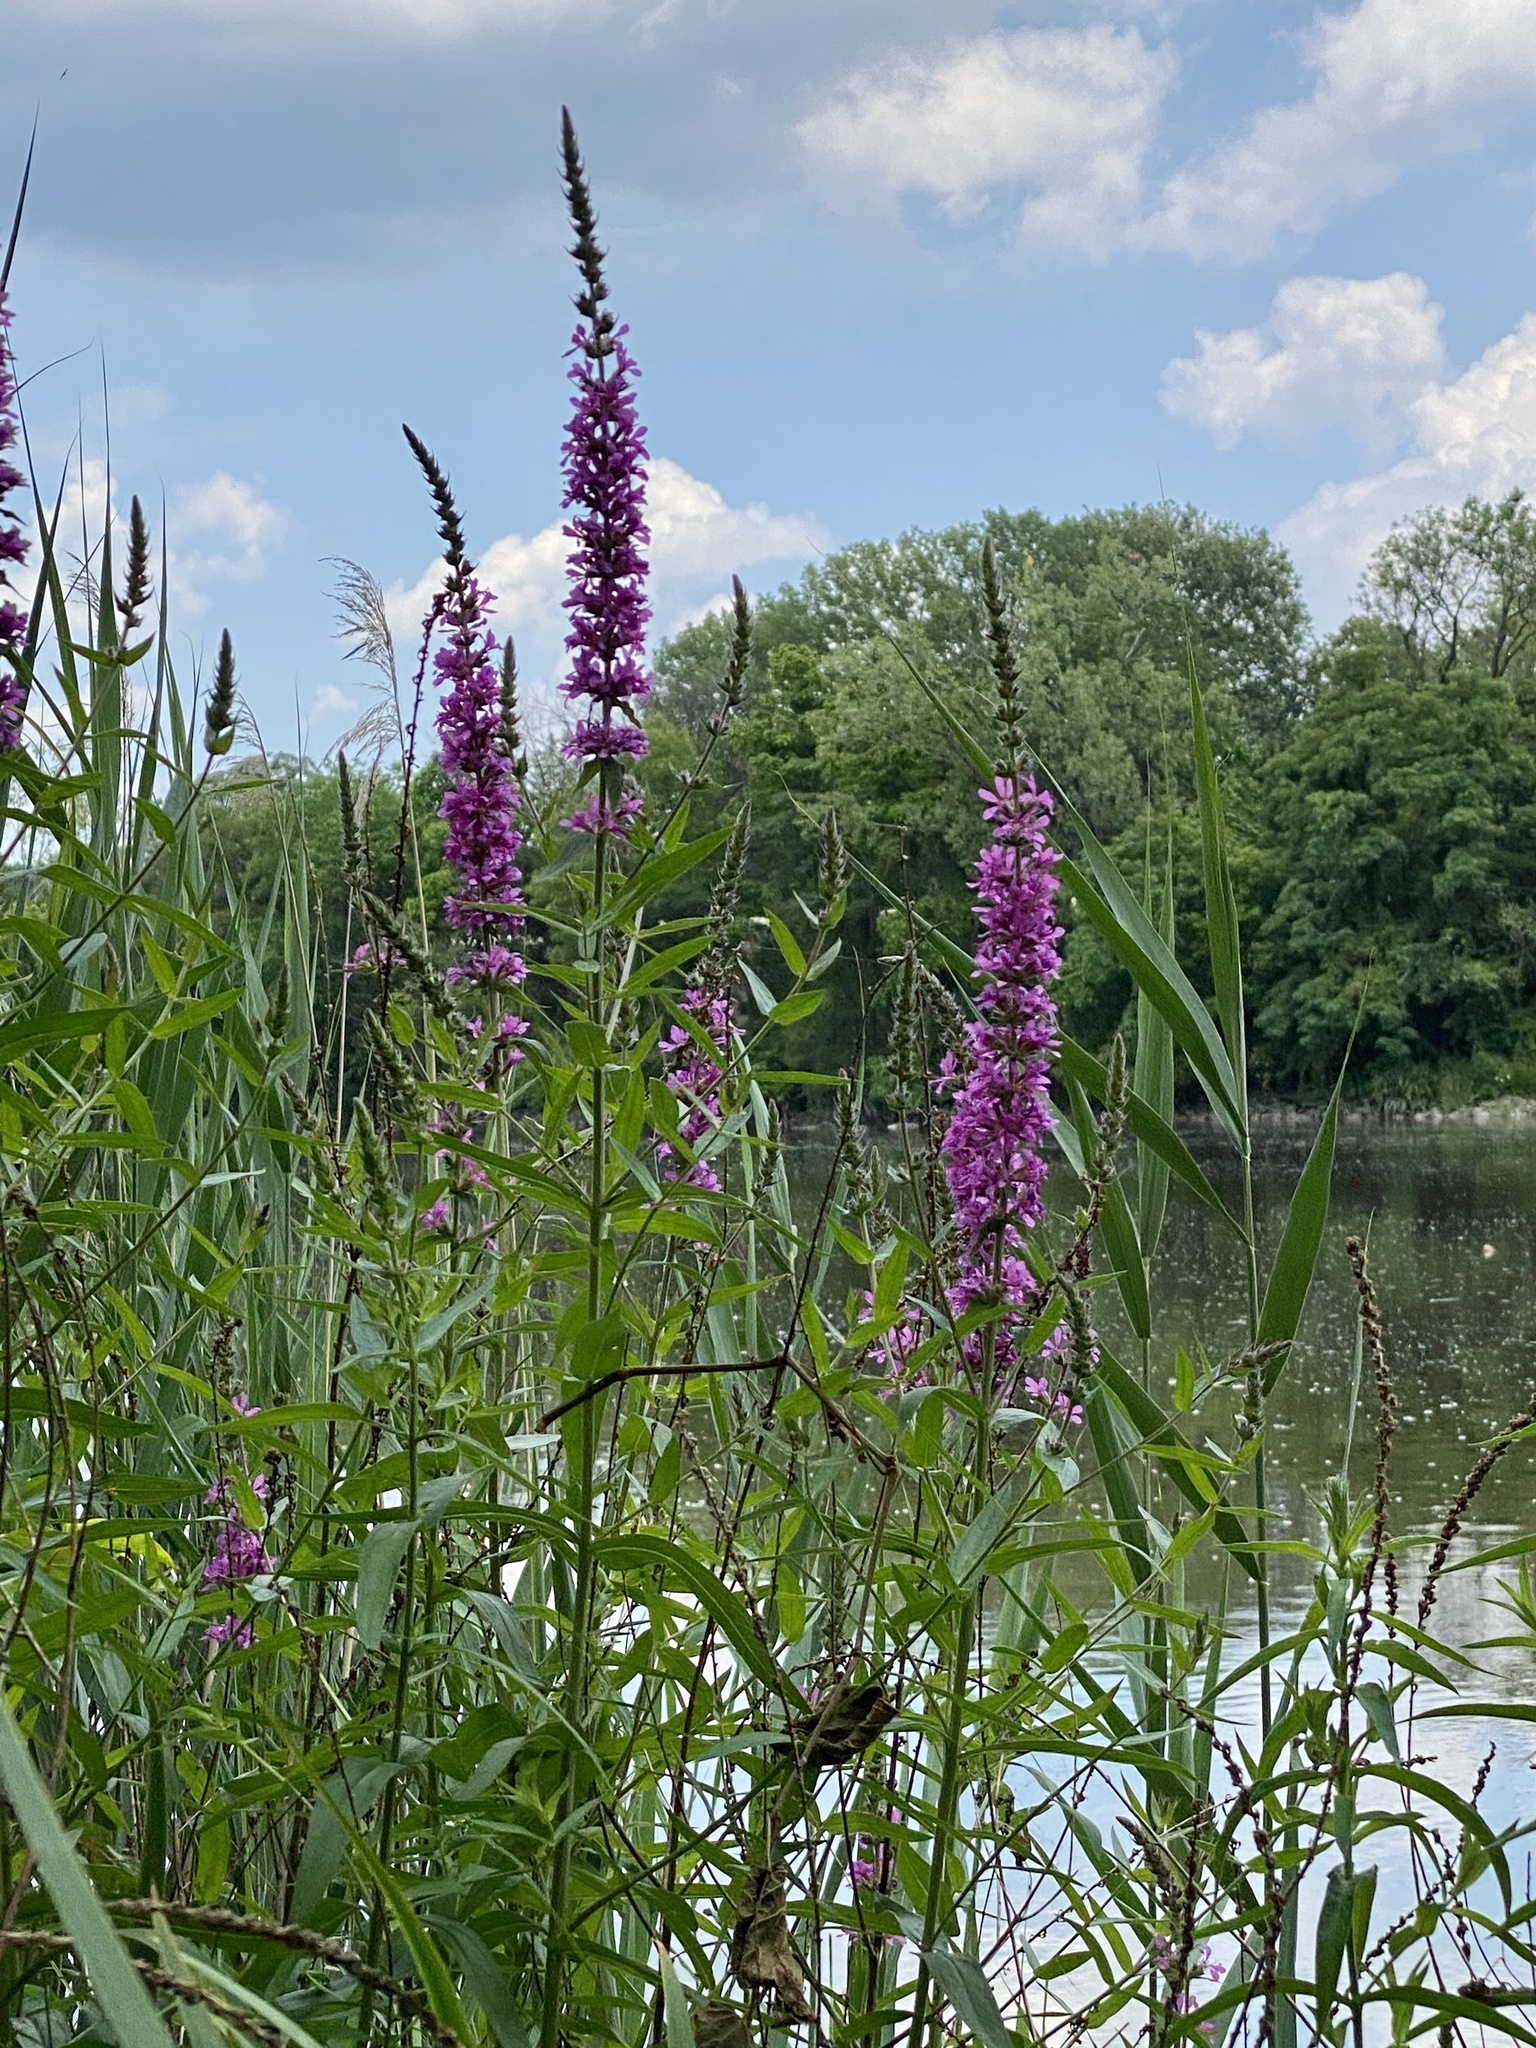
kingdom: Plantae
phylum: Tracheophyta
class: Magnoliopsida
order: Myrtales
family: Lythraceae
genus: Lythrum
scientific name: Lythrum salicaria
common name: Purple loosestrife
